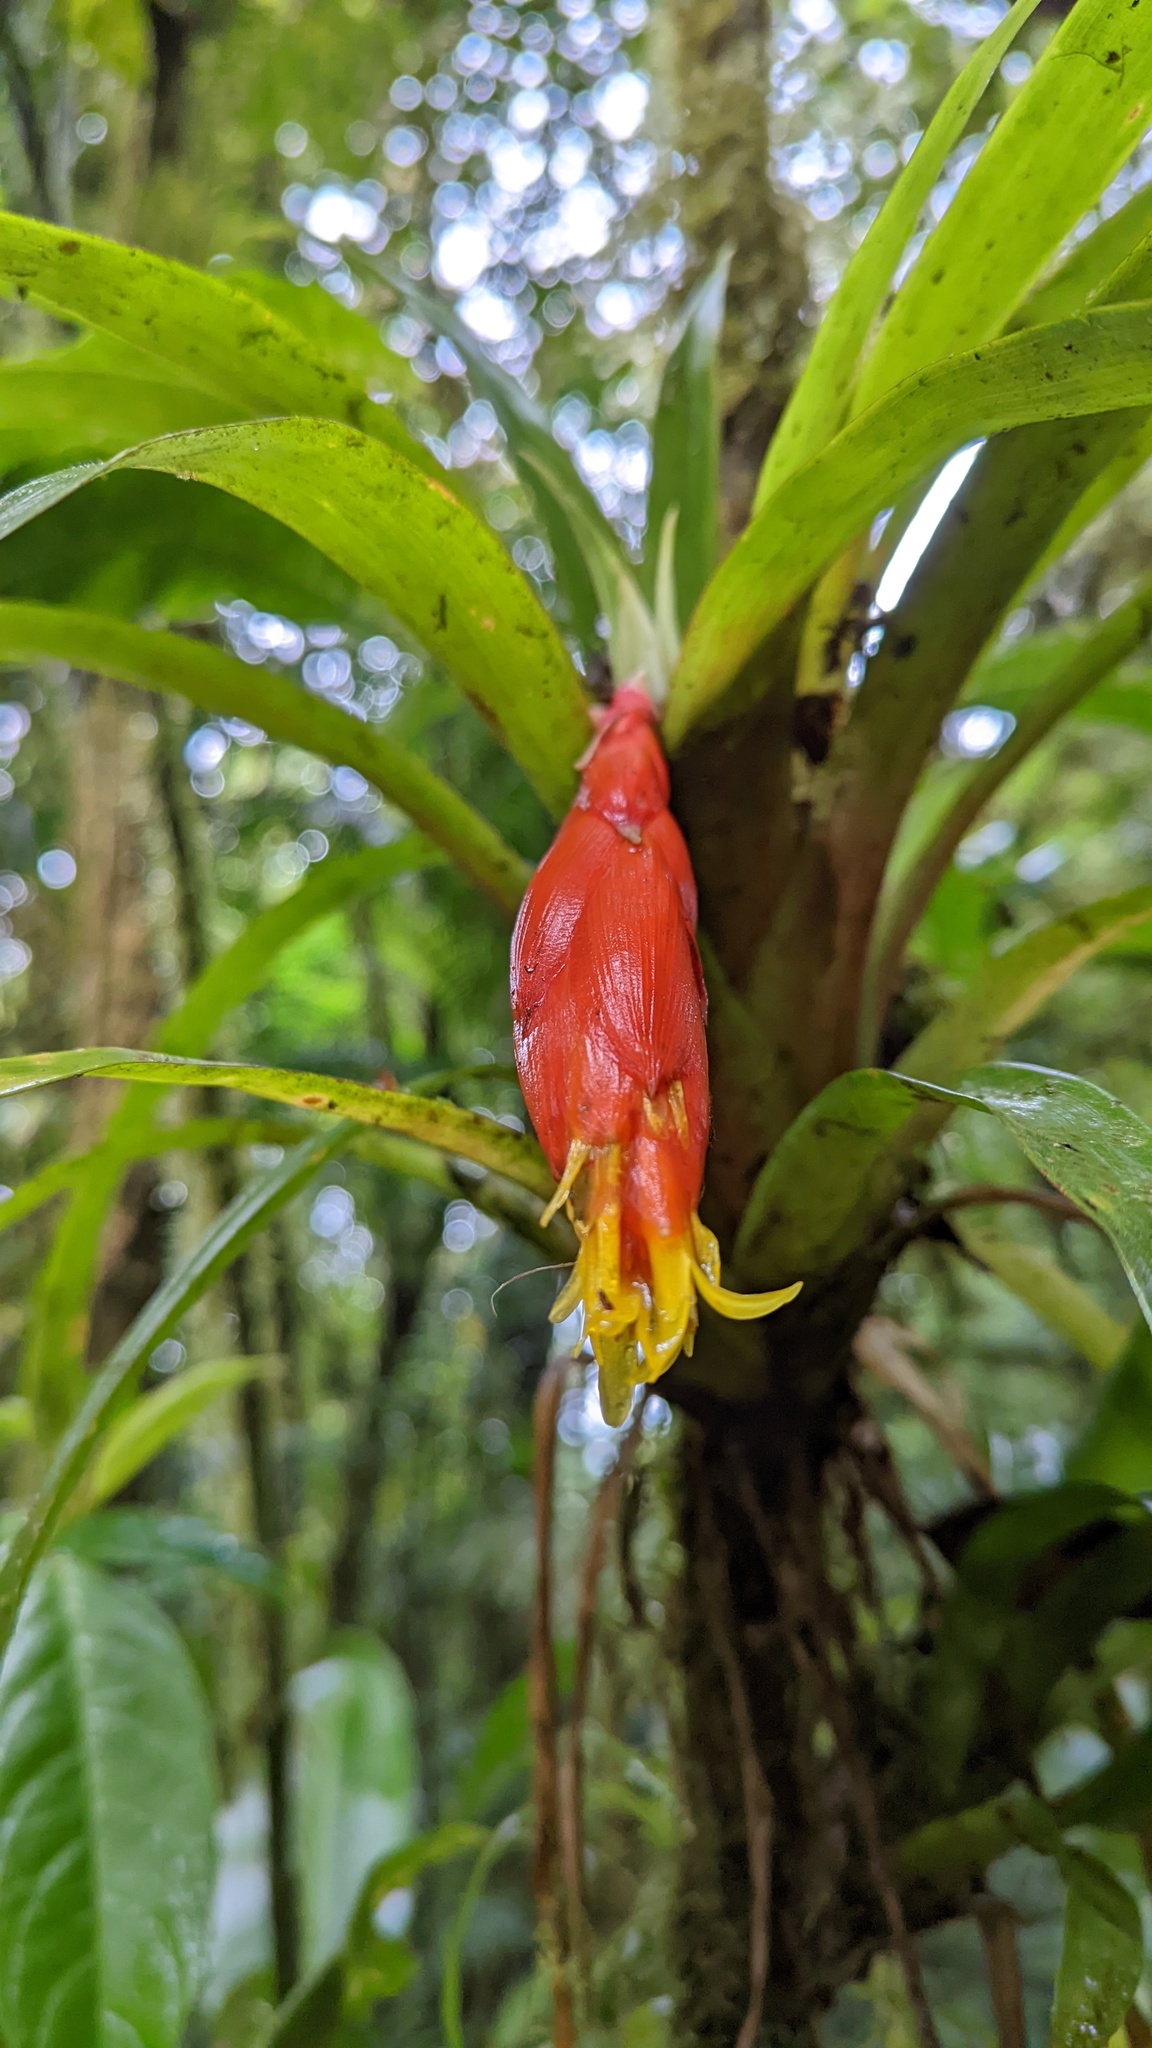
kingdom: Plantae
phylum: Tracheophyta
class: Liliopsida
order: Poales
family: Bromeliaceae
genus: Guzmania
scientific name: Guzmania nicaraguensis
